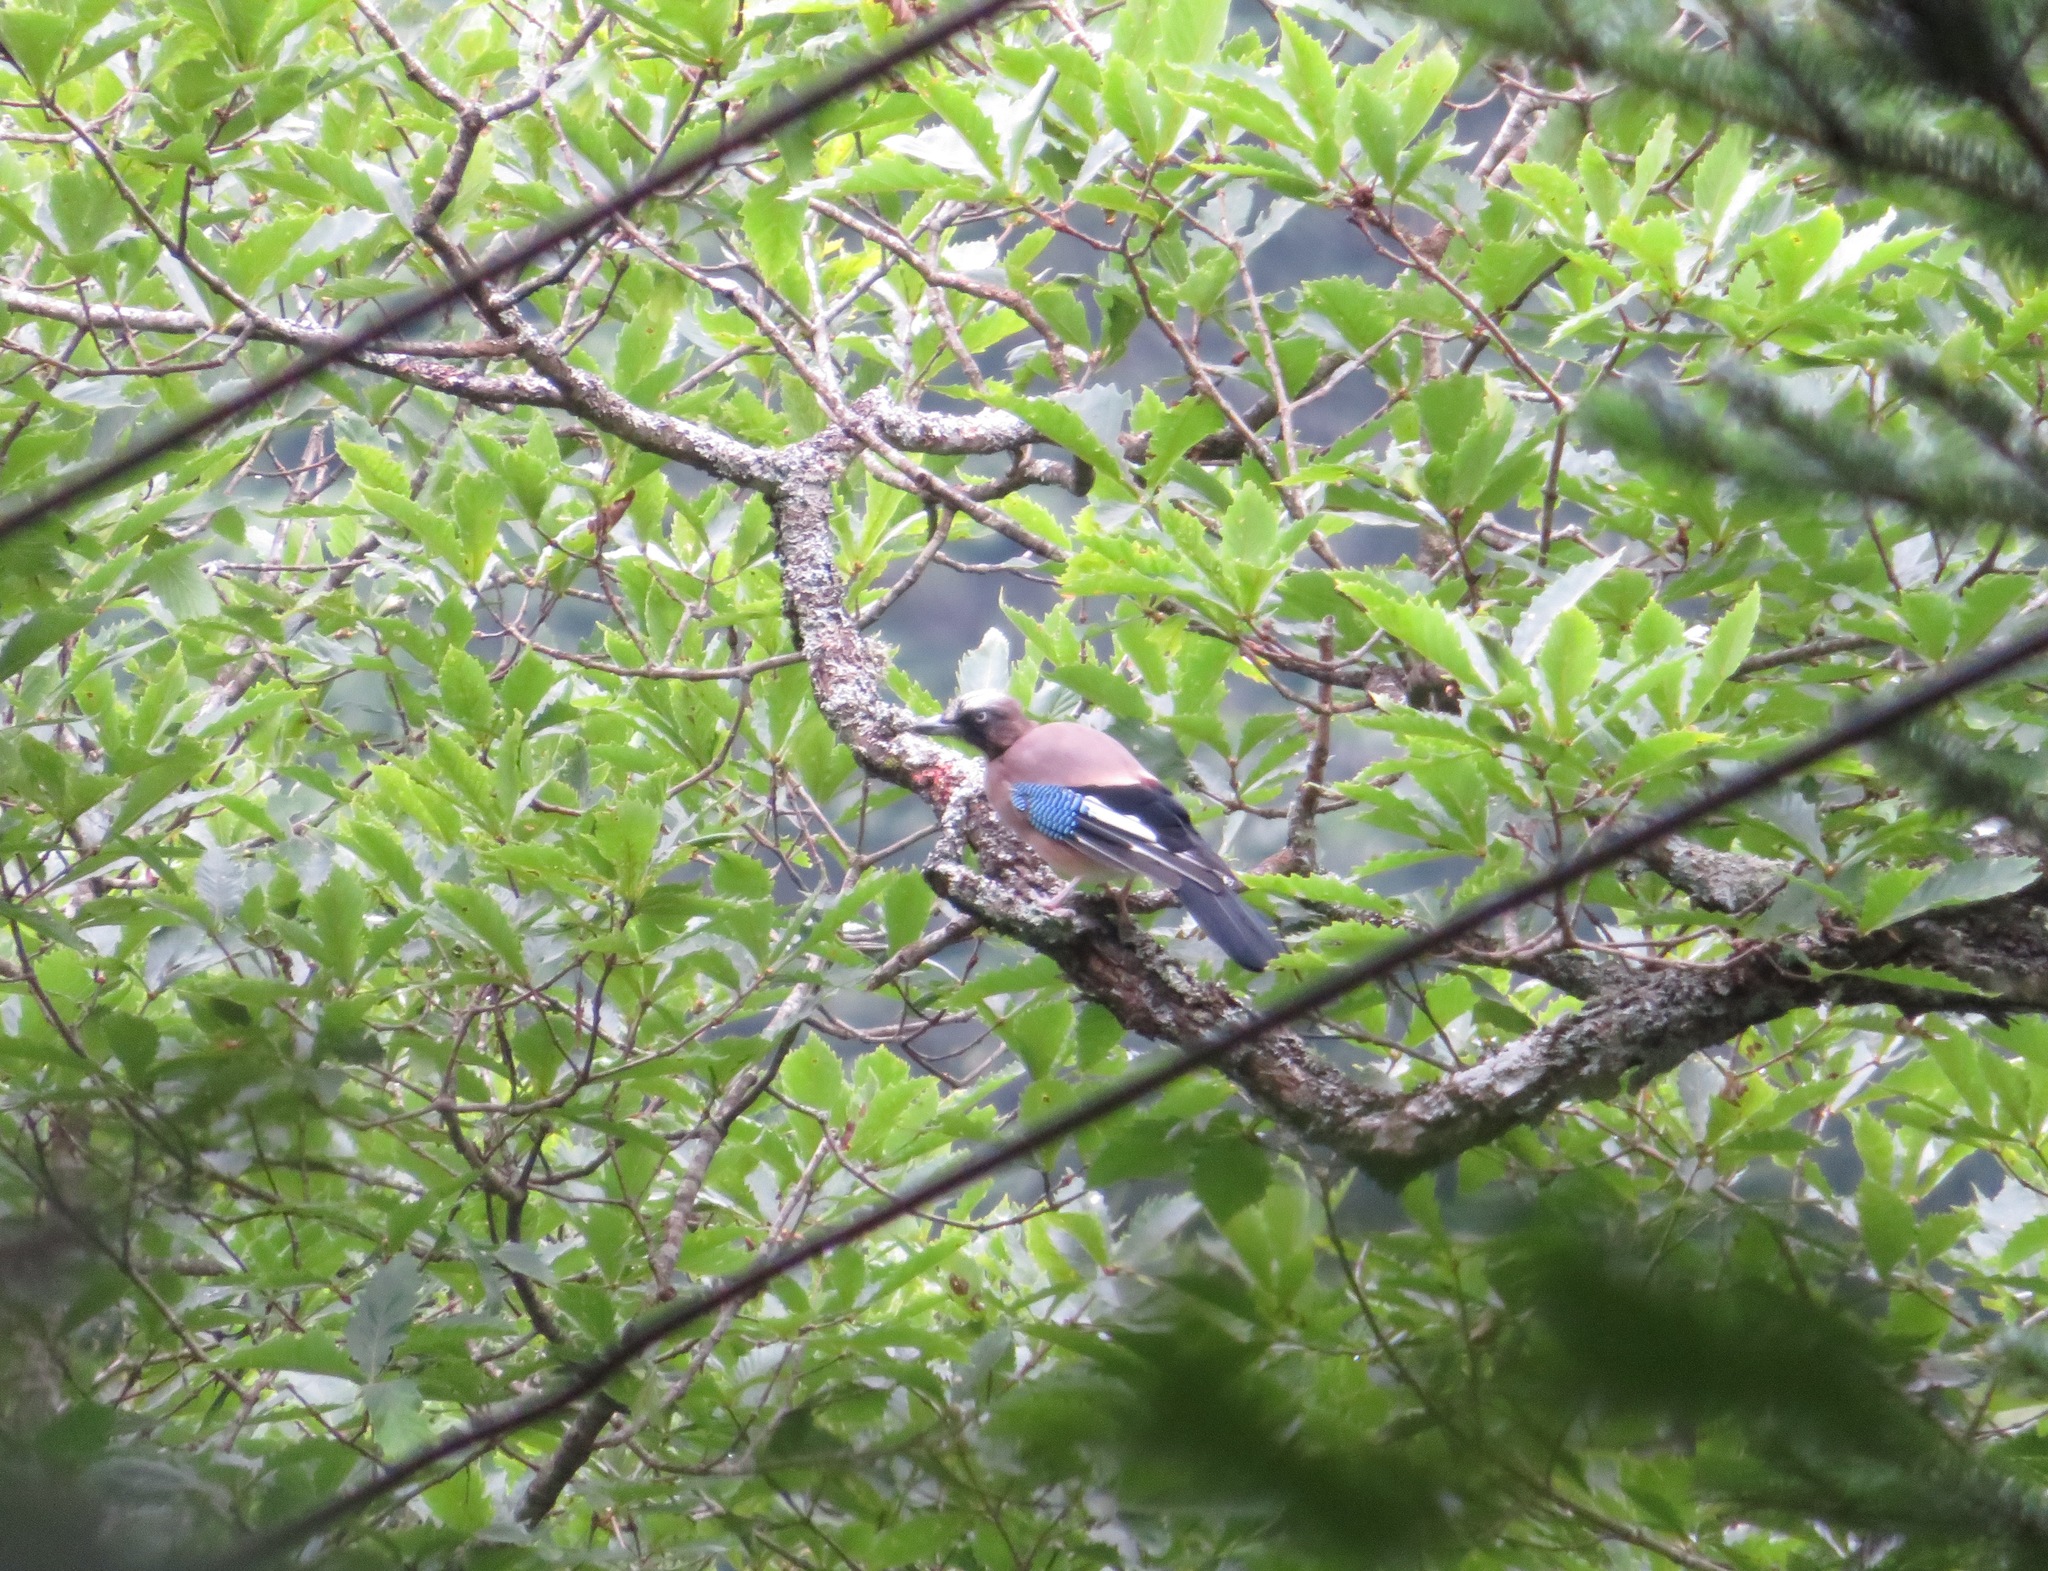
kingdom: Animalia
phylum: Chordata
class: Aves
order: Passeriformes
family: Corvidae
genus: Garrulus
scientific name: Garrulus glandarius
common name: Eurasian jay
